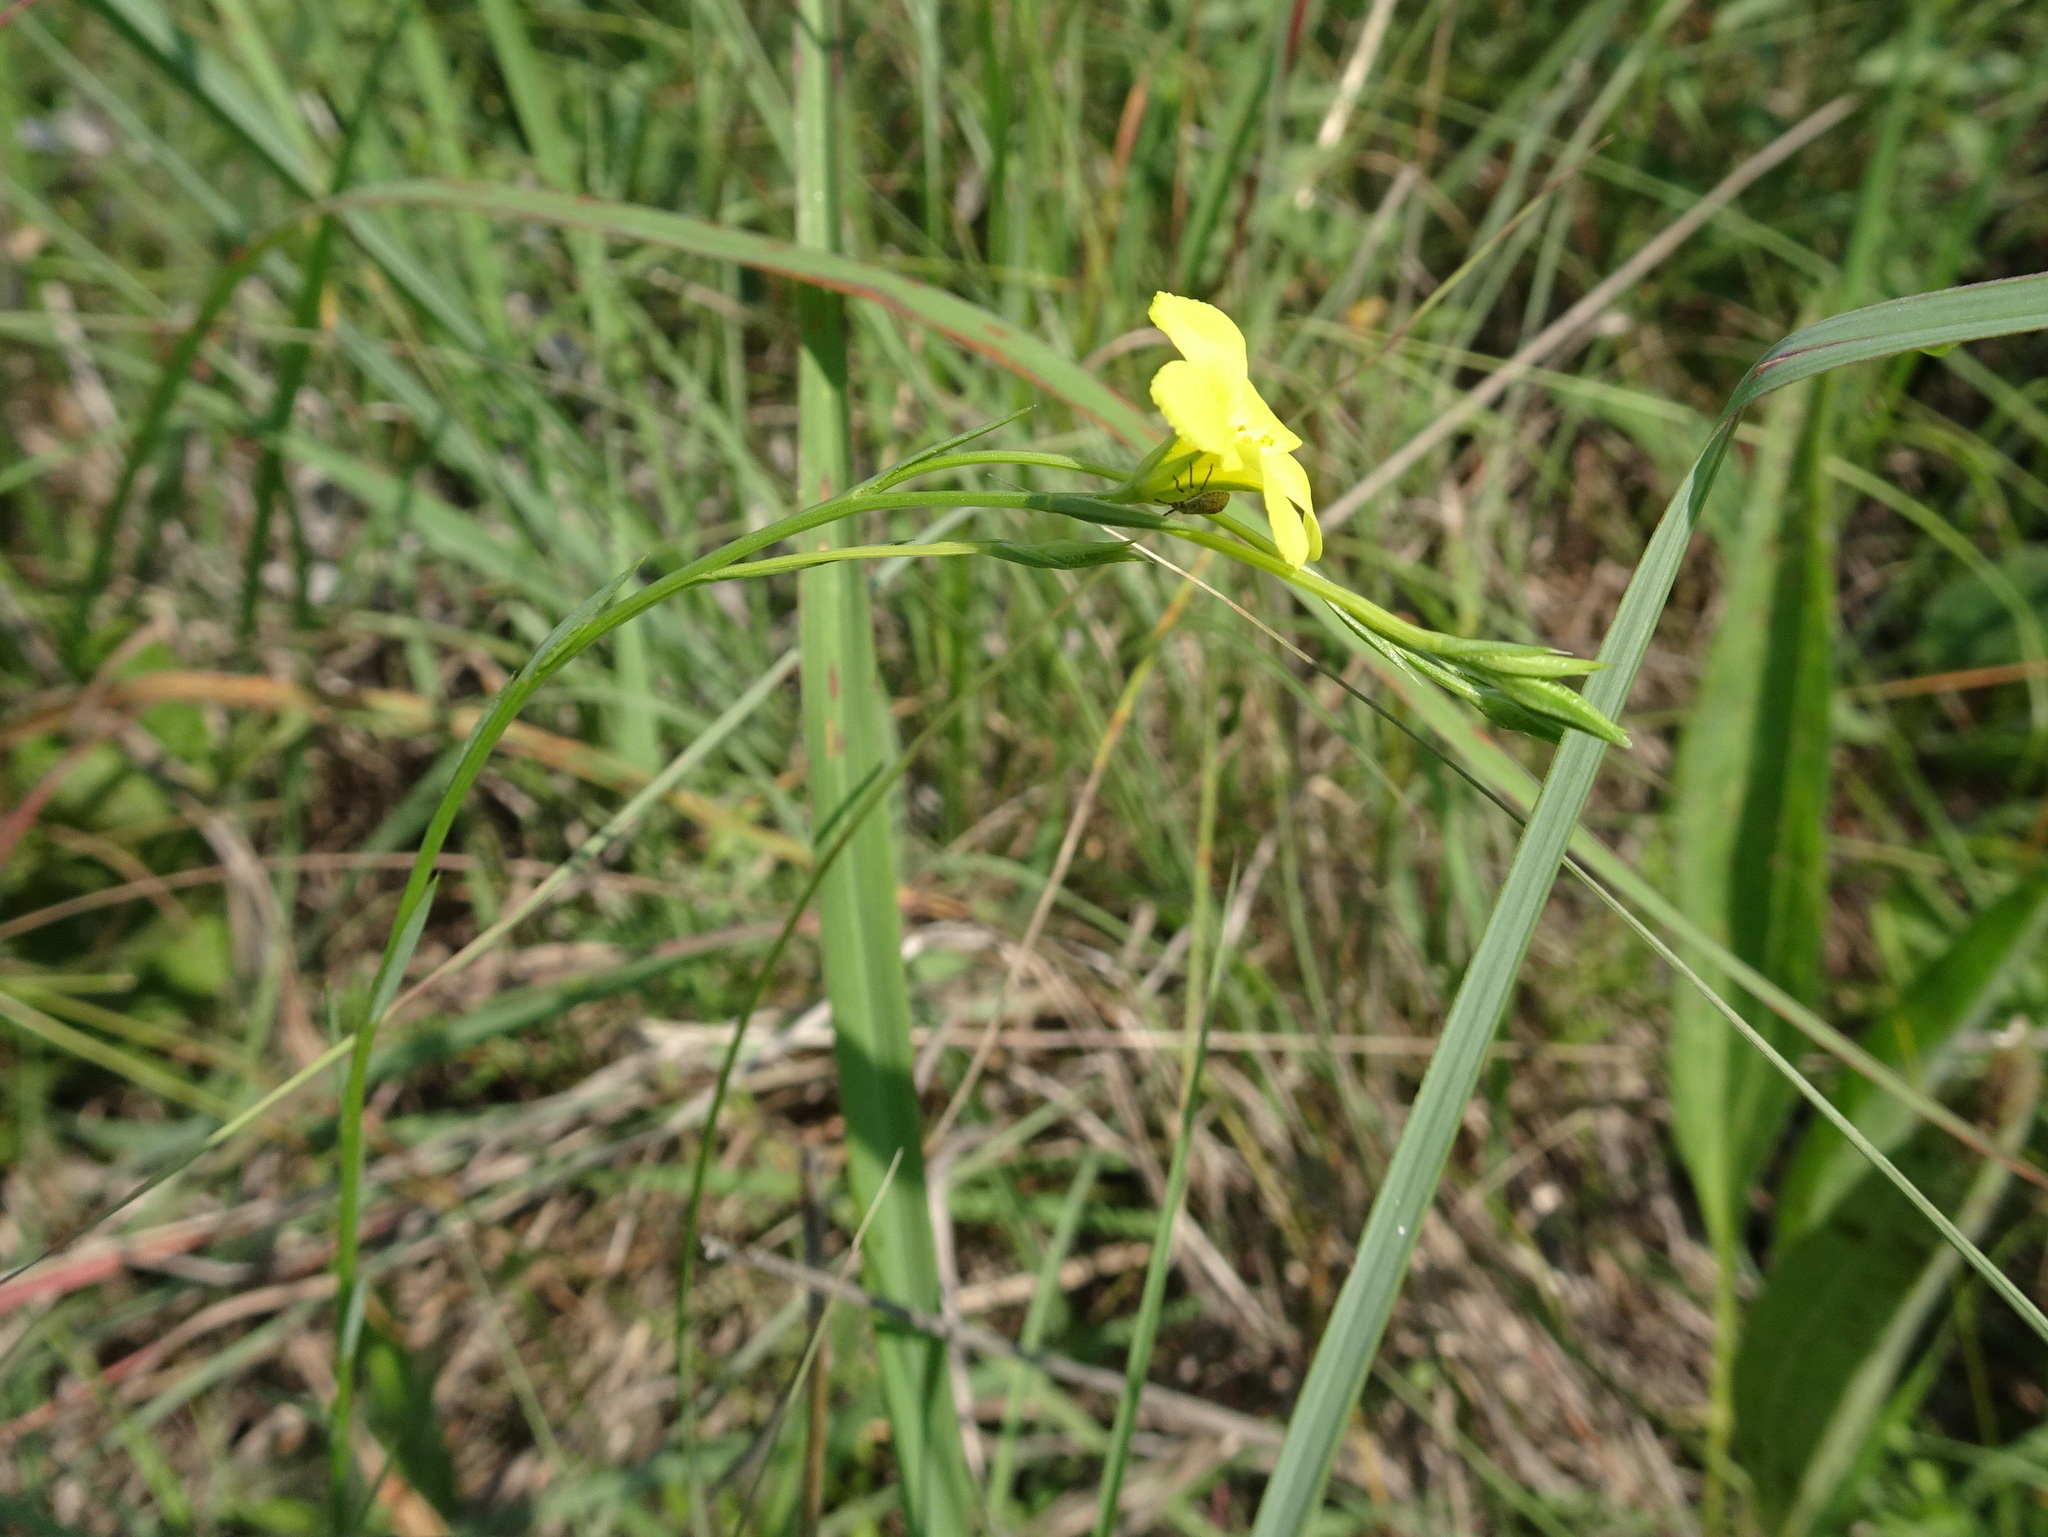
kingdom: Plantae
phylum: Tracheophyta
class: Magnoliopsida
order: Malpighiales
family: Linaceae
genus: Linum
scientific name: Linum sulcatum
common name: Grooved flax
